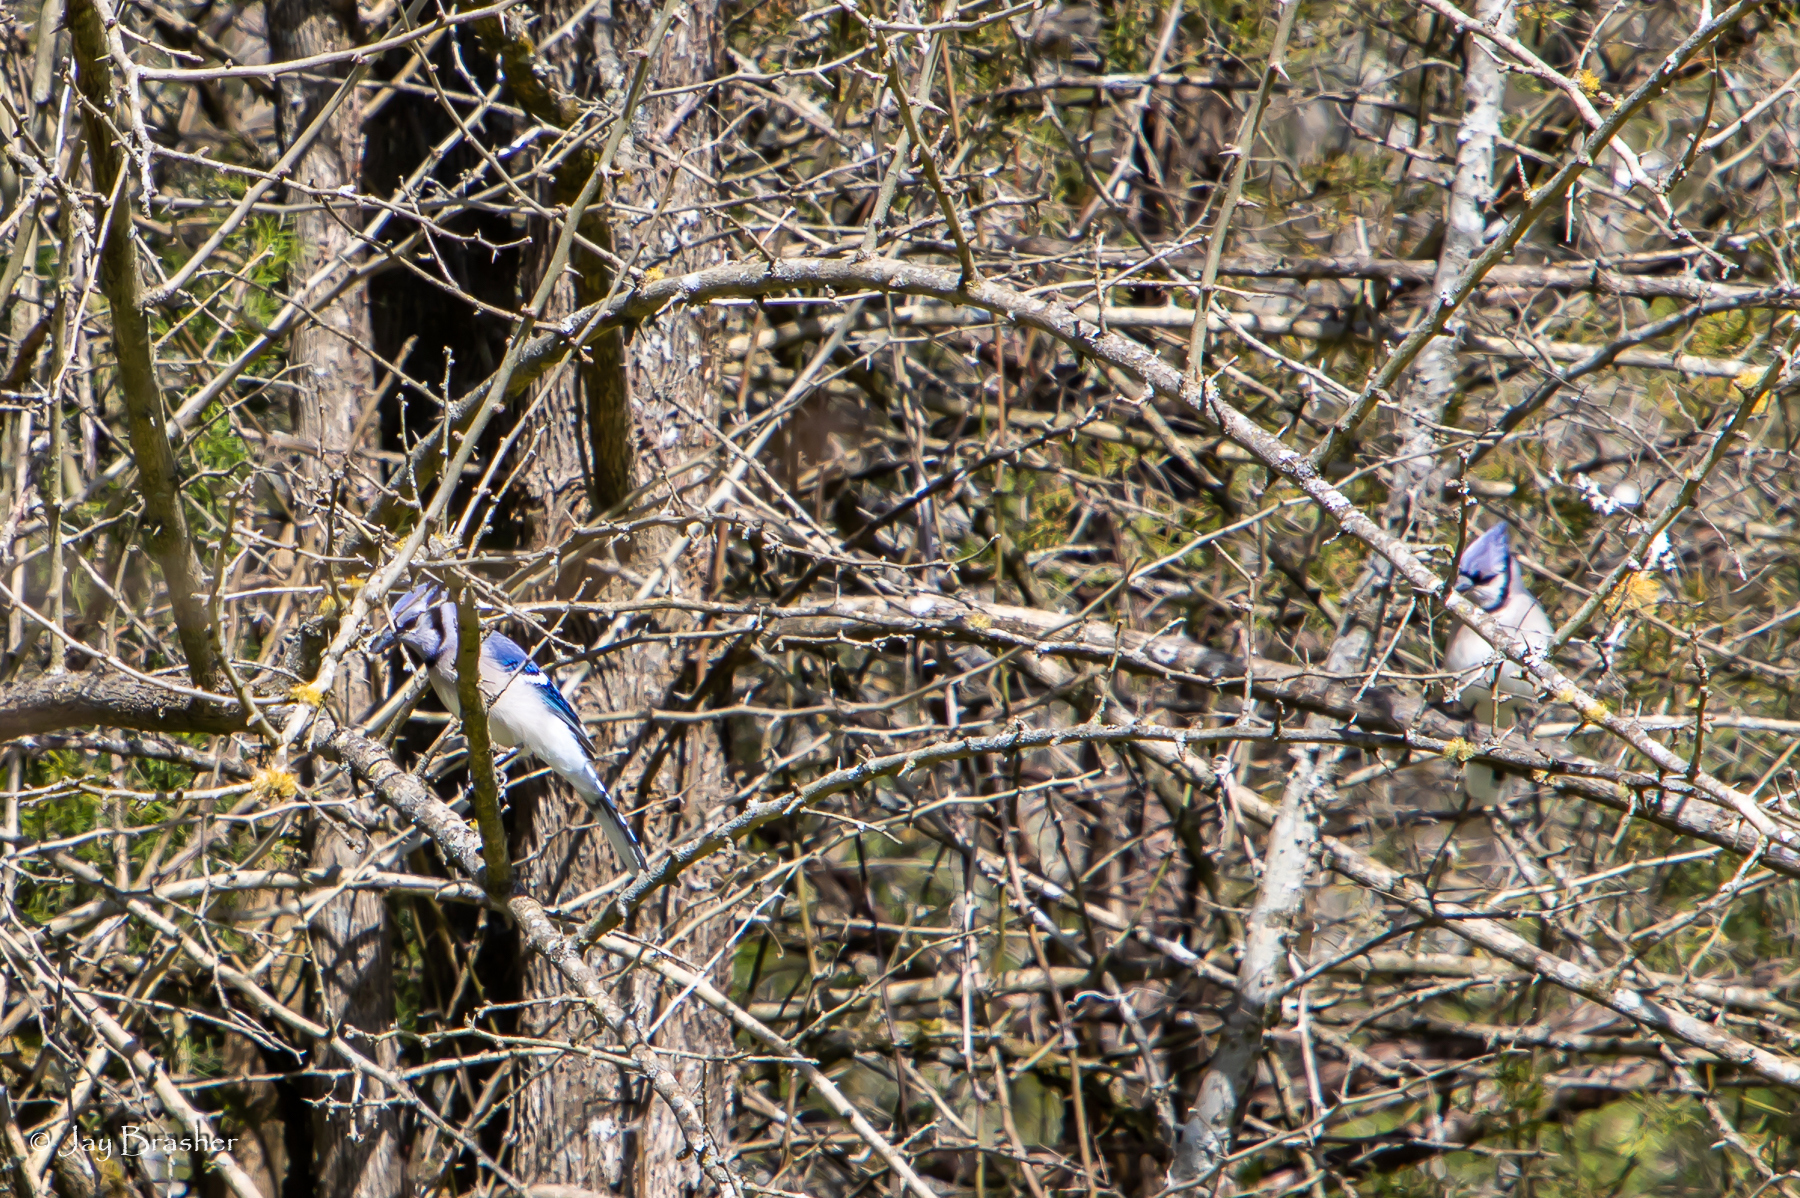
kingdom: Animalia
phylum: Chordata
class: Aves
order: Passeriformes
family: Corvidae
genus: Cyanocitta
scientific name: Cyanocitta cristata
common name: Blue jay
